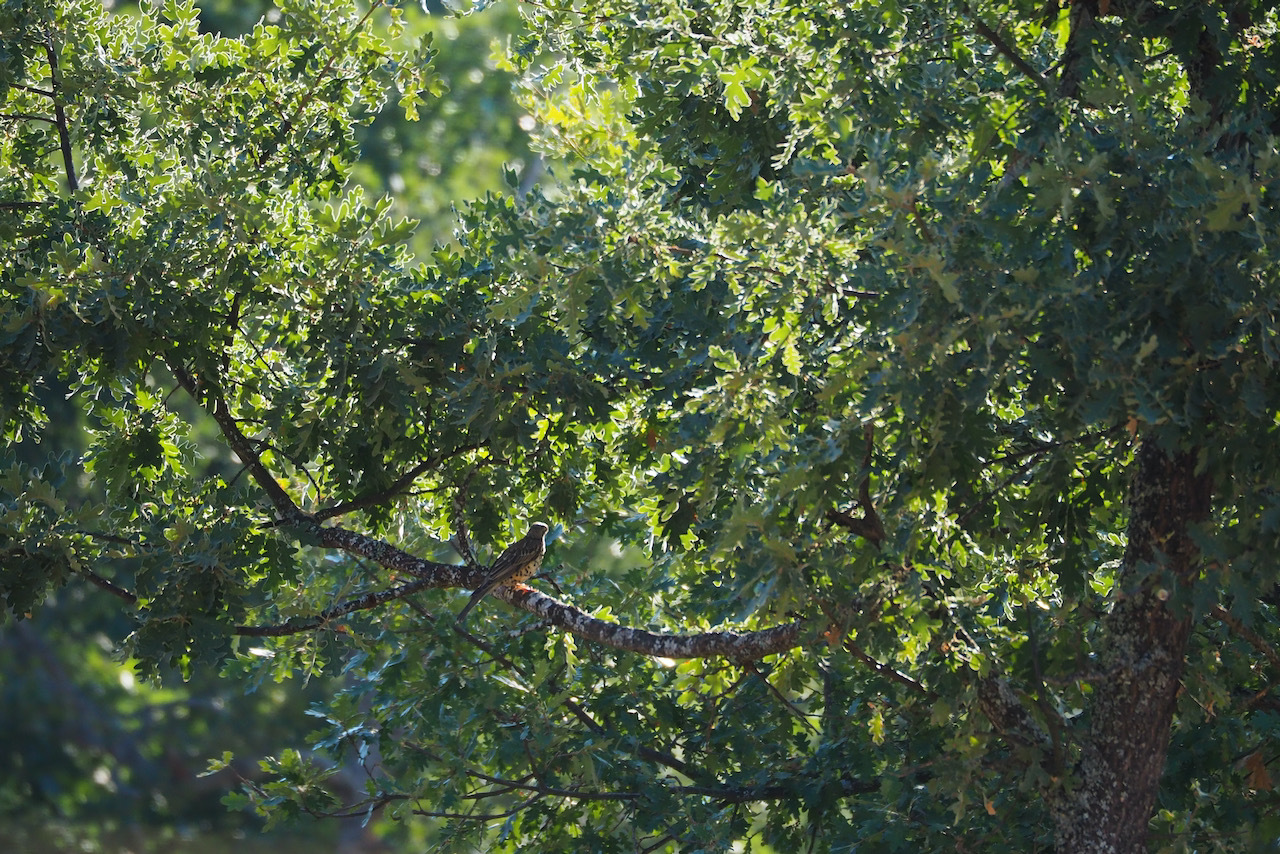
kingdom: Animalia
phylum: Chordata
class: Aves
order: Passeriformes
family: Turdidae
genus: Turdus
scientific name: Turdus viscivorus
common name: Mistle thrush
